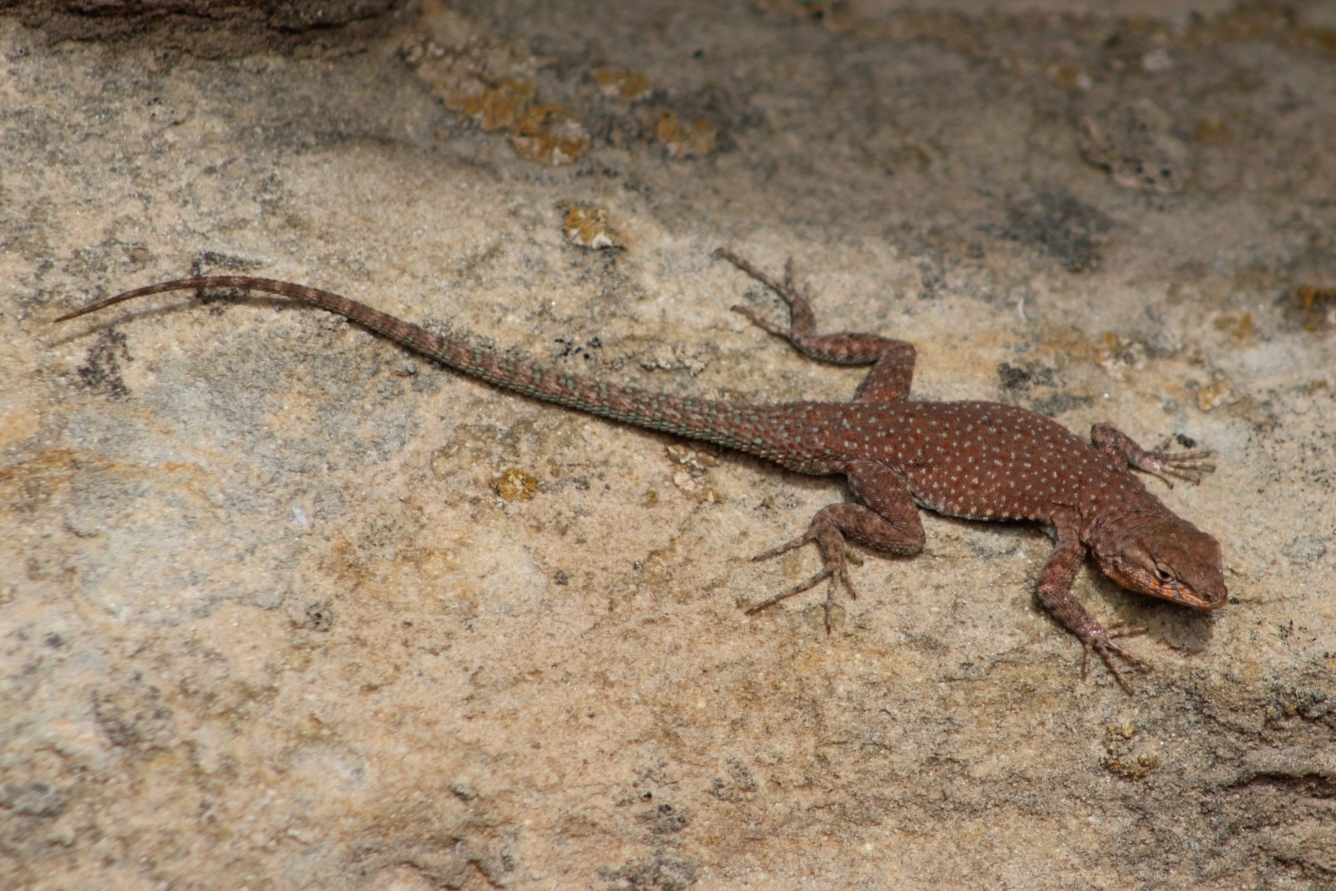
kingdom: Animalia
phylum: Chordata
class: Squamata
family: Phrynosomatidae
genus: Uta
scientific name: Uta stansburiana
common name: Side-blotched lizard
